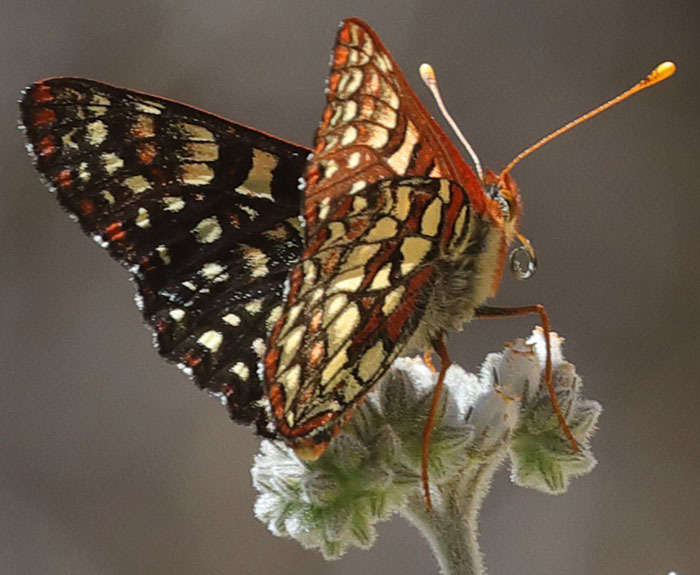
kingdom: Animalia
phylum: Arthropoda
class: Insecta
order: Lepidoptera
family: Nymphalidae
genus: Occidryas
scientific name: Occidryas chalcedona
